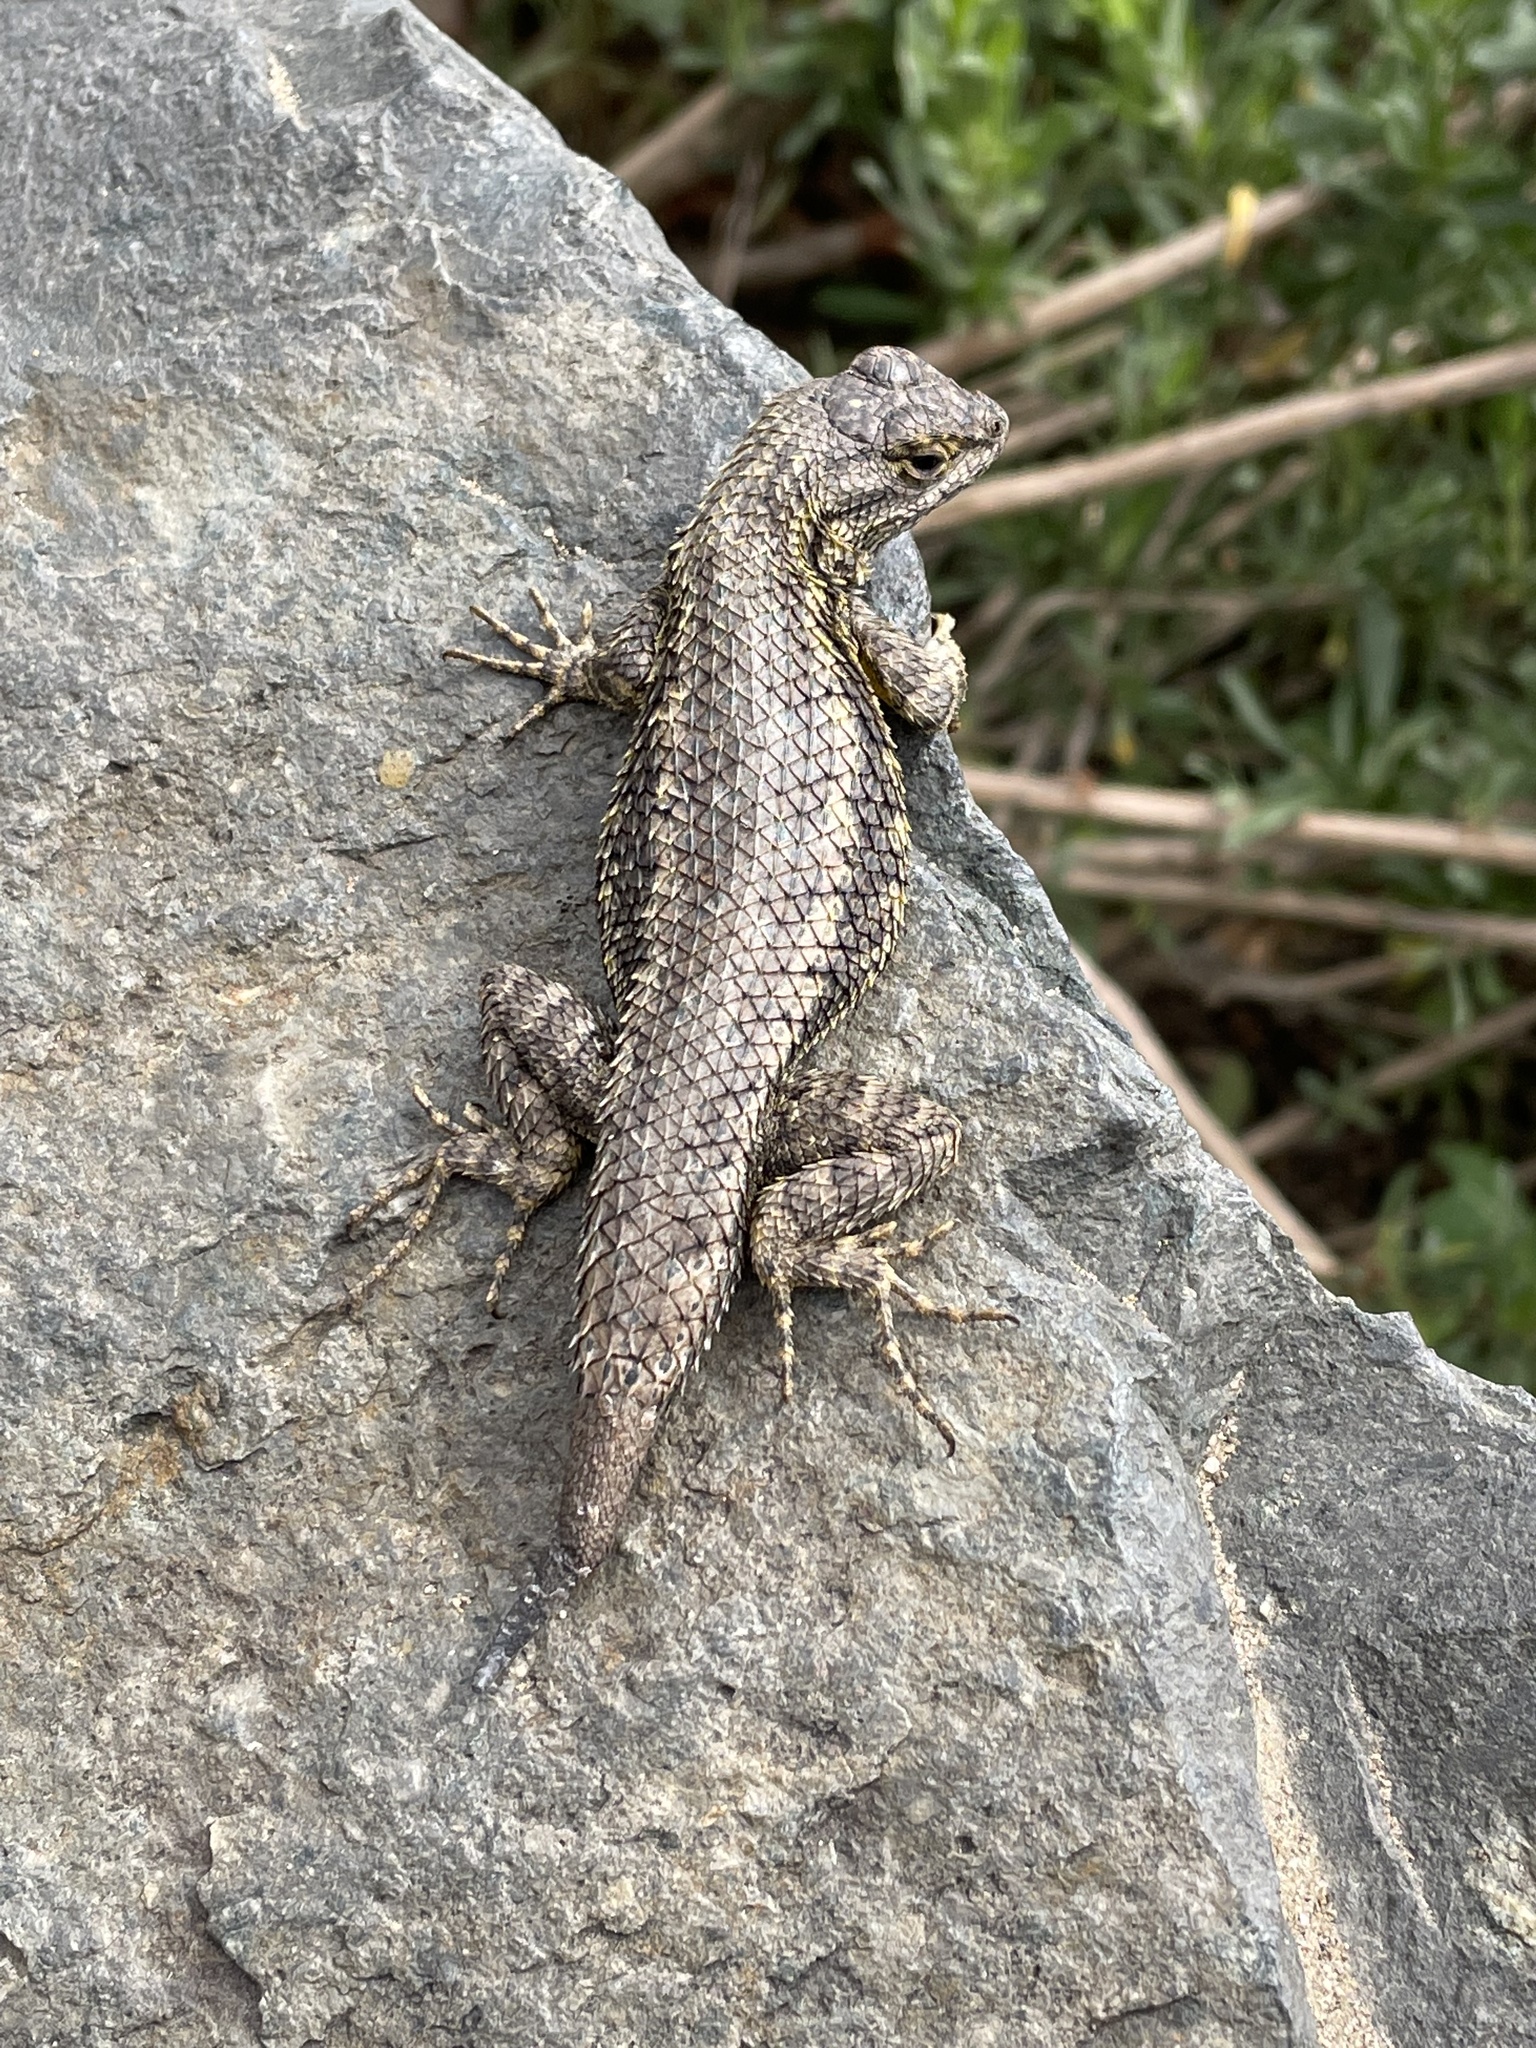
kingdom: Animalia
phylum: Chordata
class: Squamata
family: Phrynosomatidae
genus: Sceloporus
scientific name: Sceloporus occidentalis
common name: Western fence lizard
